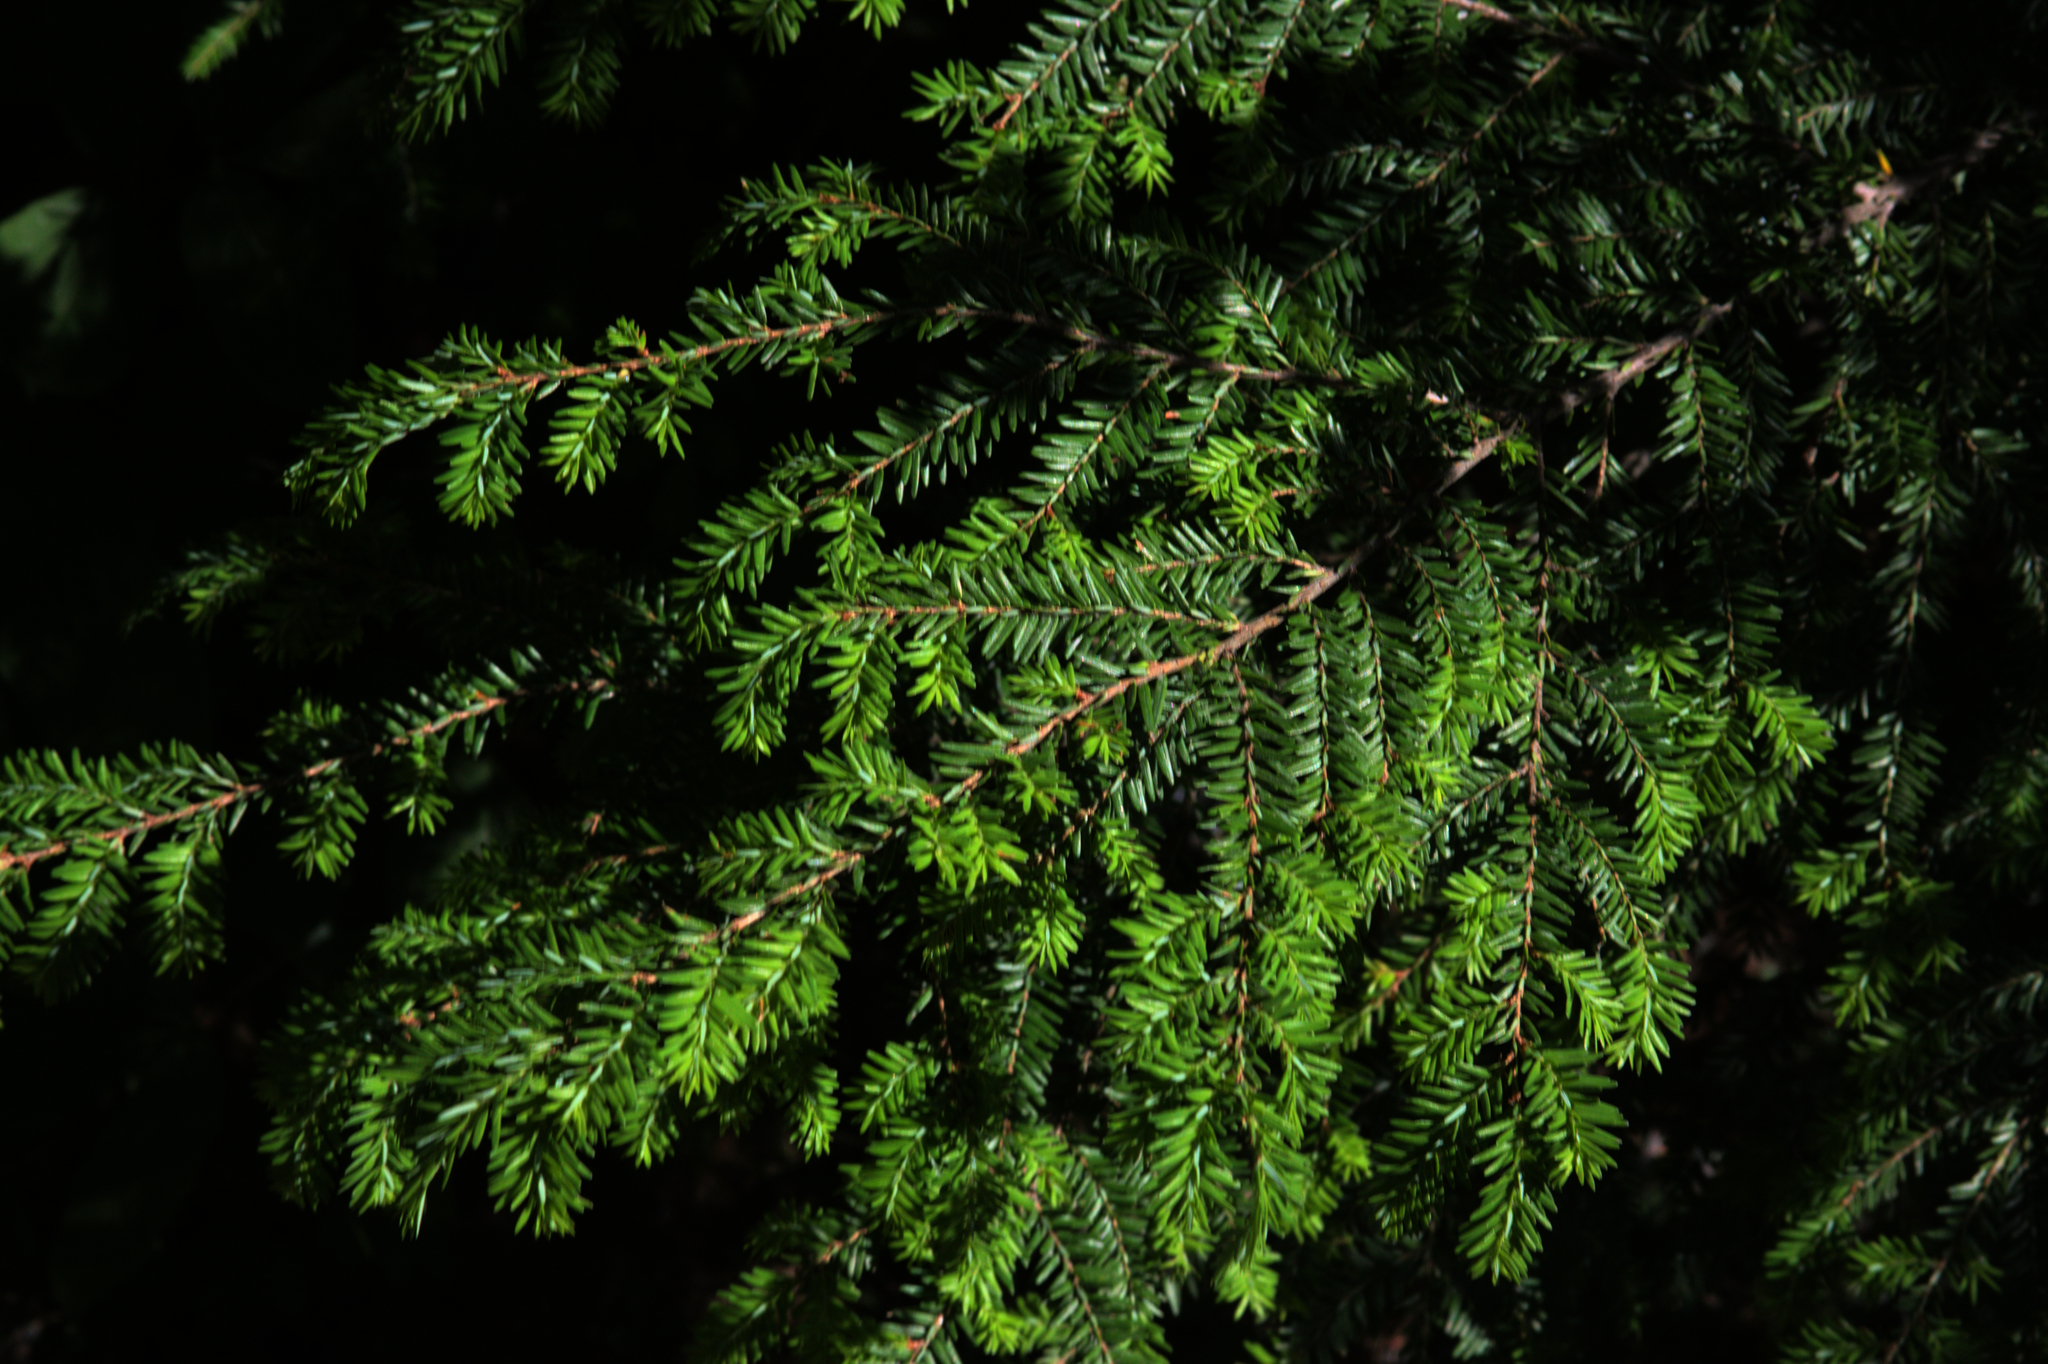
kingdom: Plantae
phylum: Tracheophyta
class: Pinopsida
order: Pinales
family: Pinaceae
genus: Tsuga
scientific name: Tsuga canadensis
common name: Eastern hemlock
